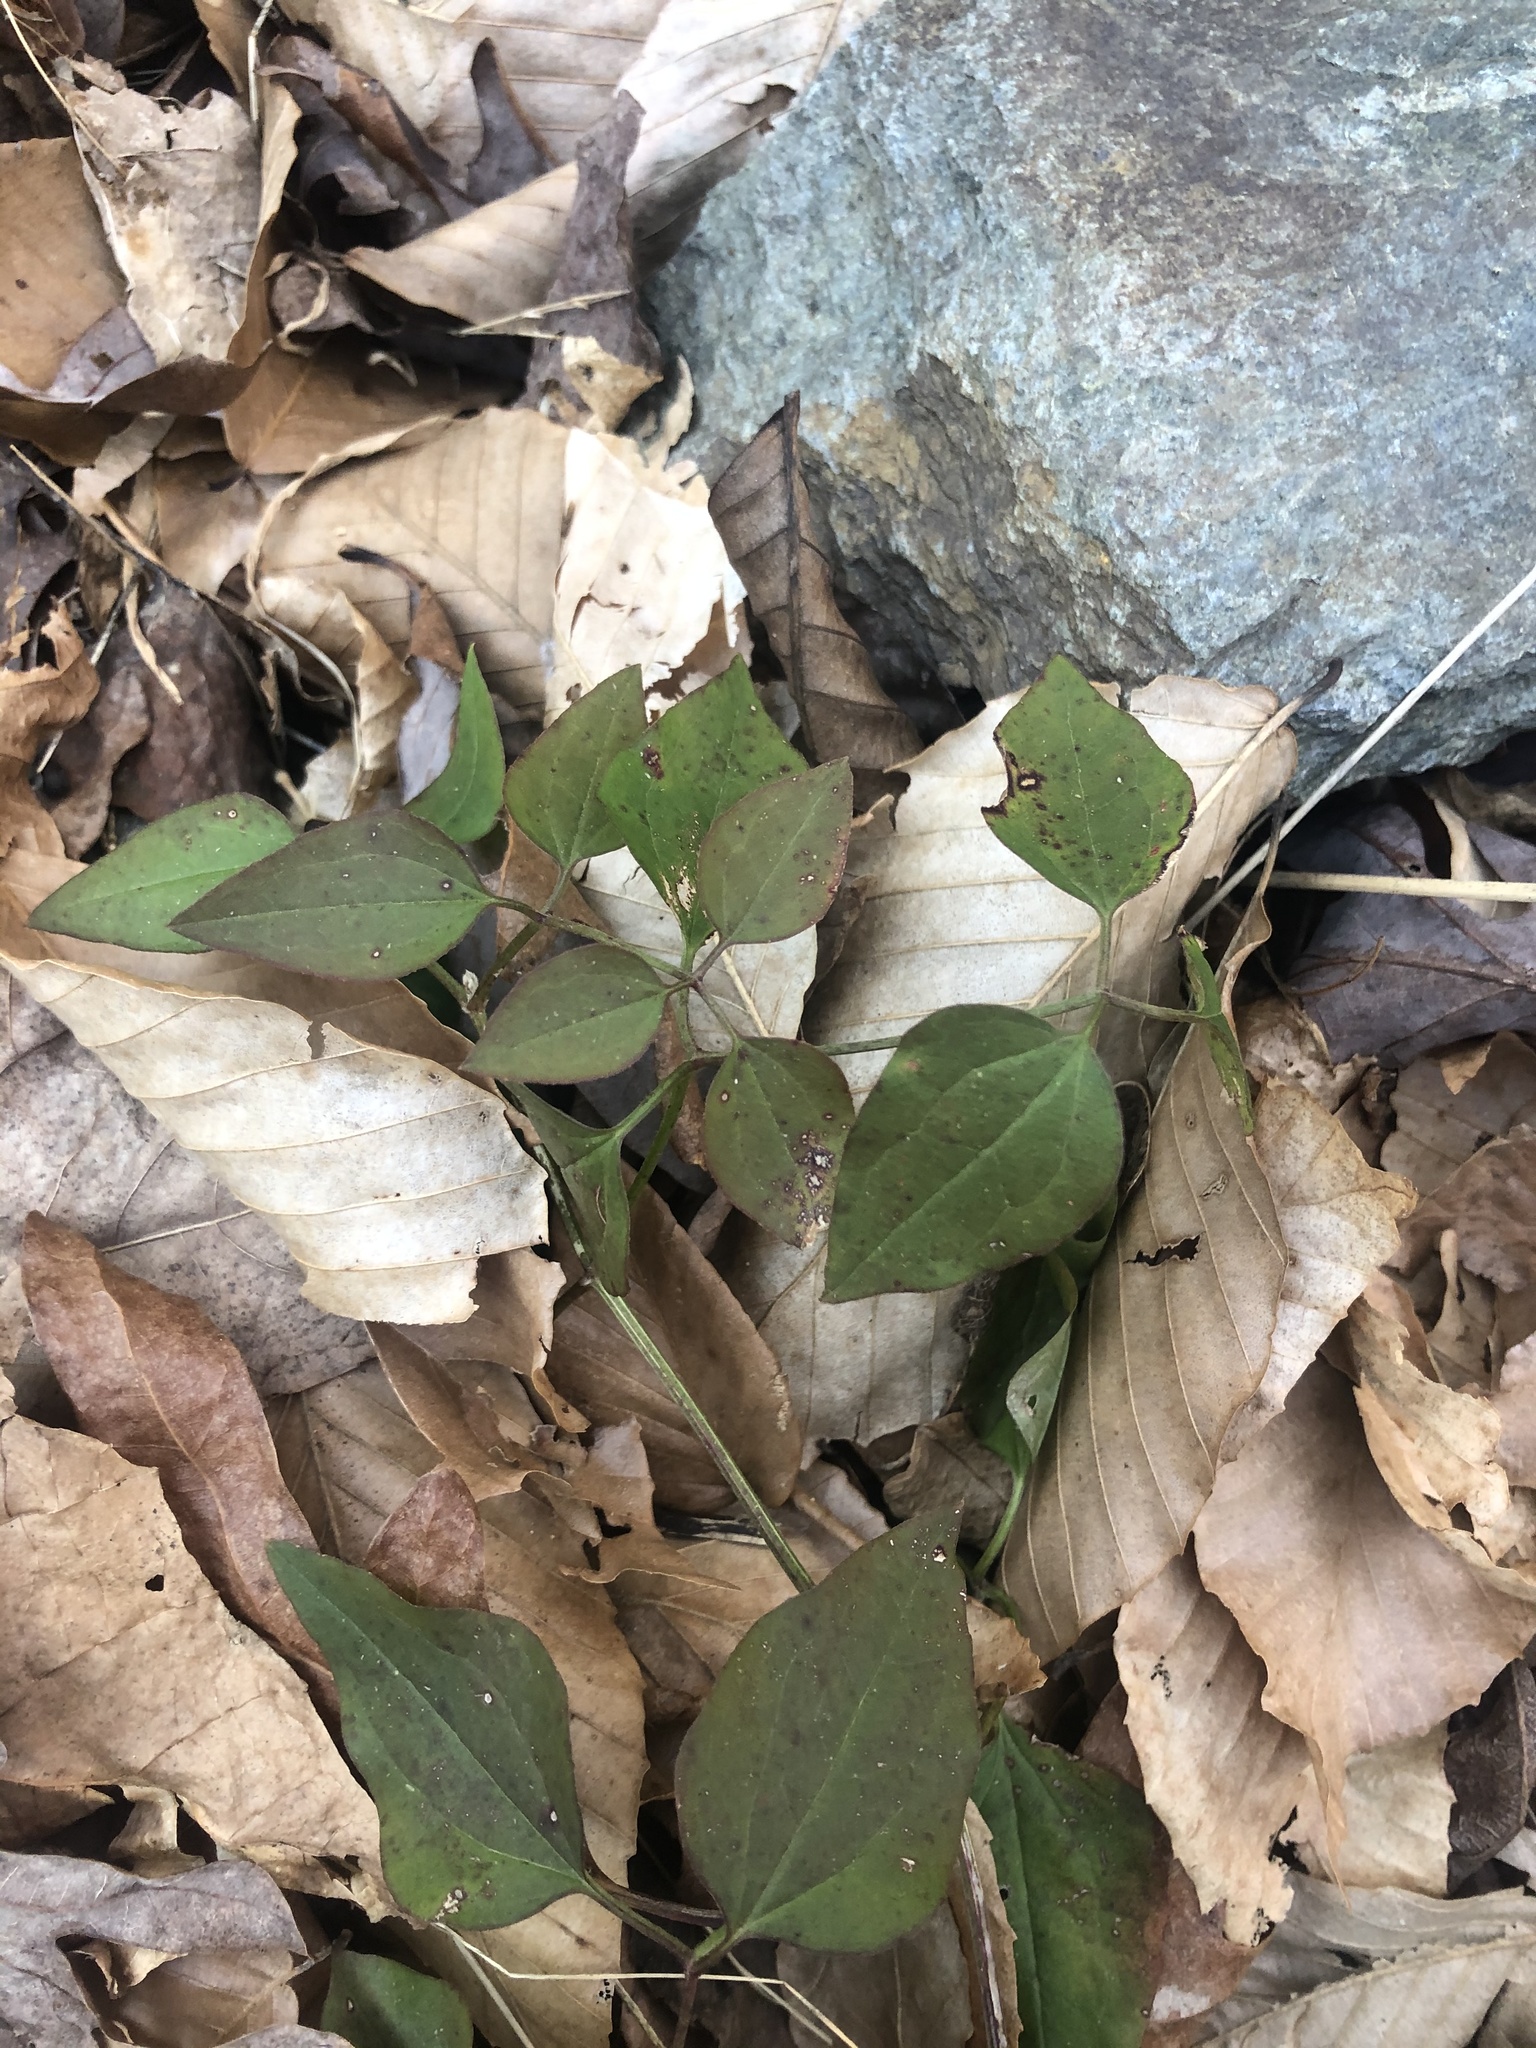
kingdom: Plantae
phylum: Tracheophyta
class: Magnoliopsida
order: Ranunculales
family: Ranunculaceae
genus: Clematis
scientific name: Clematis terniflora
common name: Sweet autumn clematis
